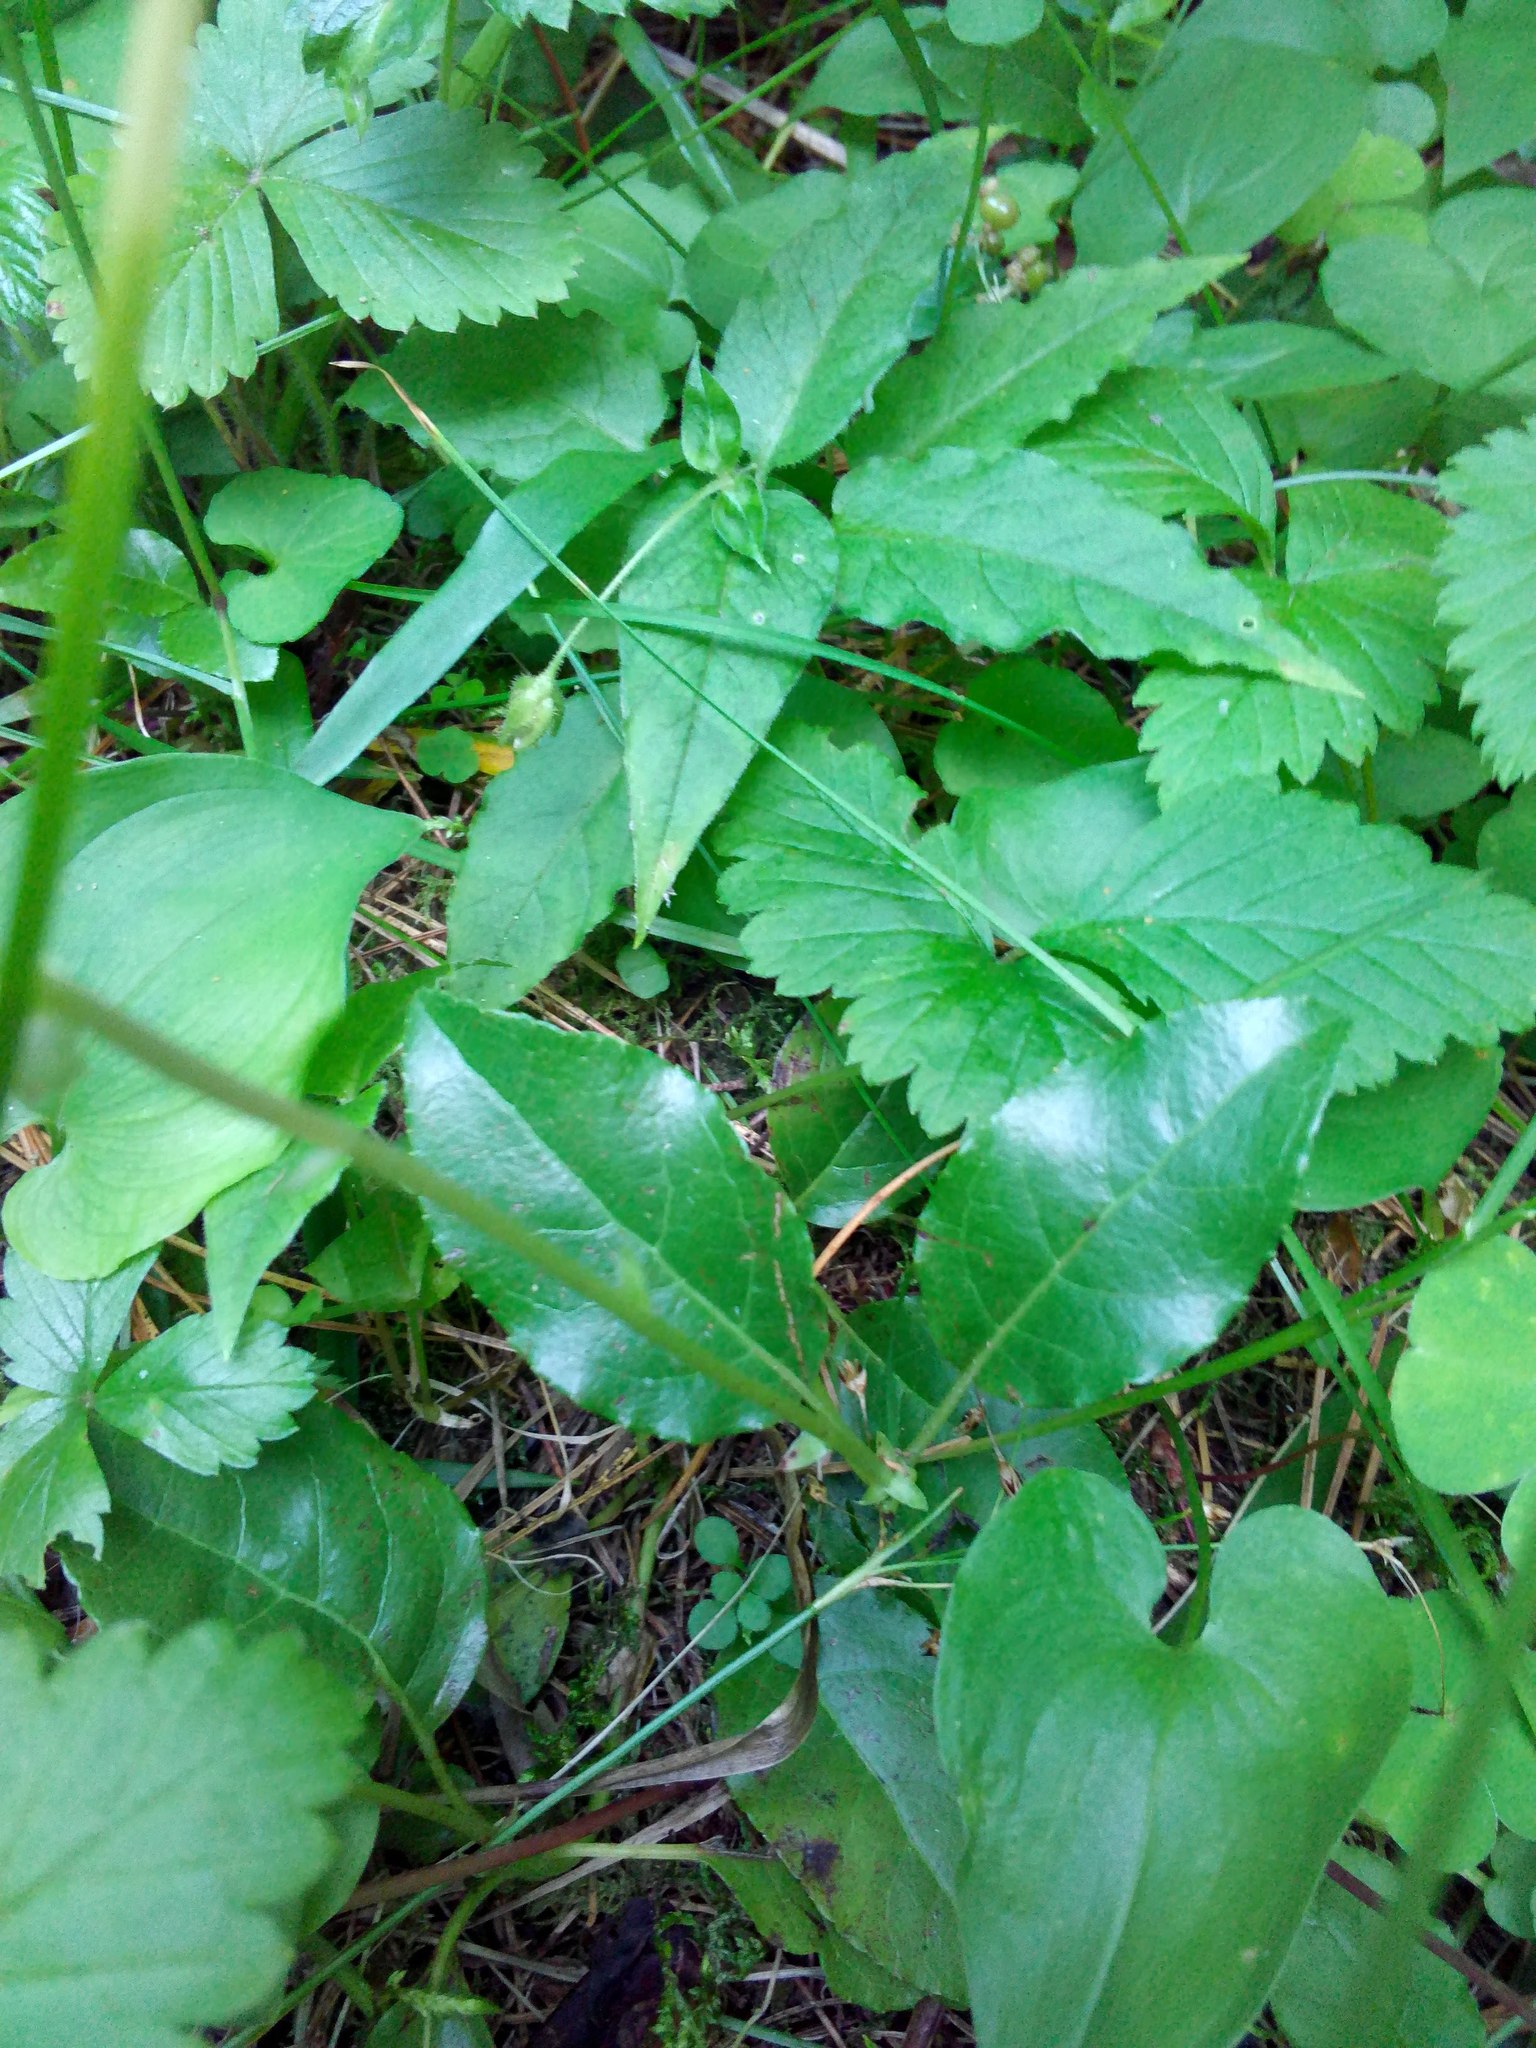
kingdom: Plantae
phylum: Tracheophyta
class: Magnoliopsida
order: Ericales
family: Ericaceae
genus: Orthilia
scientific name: Orthilia secunda
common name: One-sided orthilia
